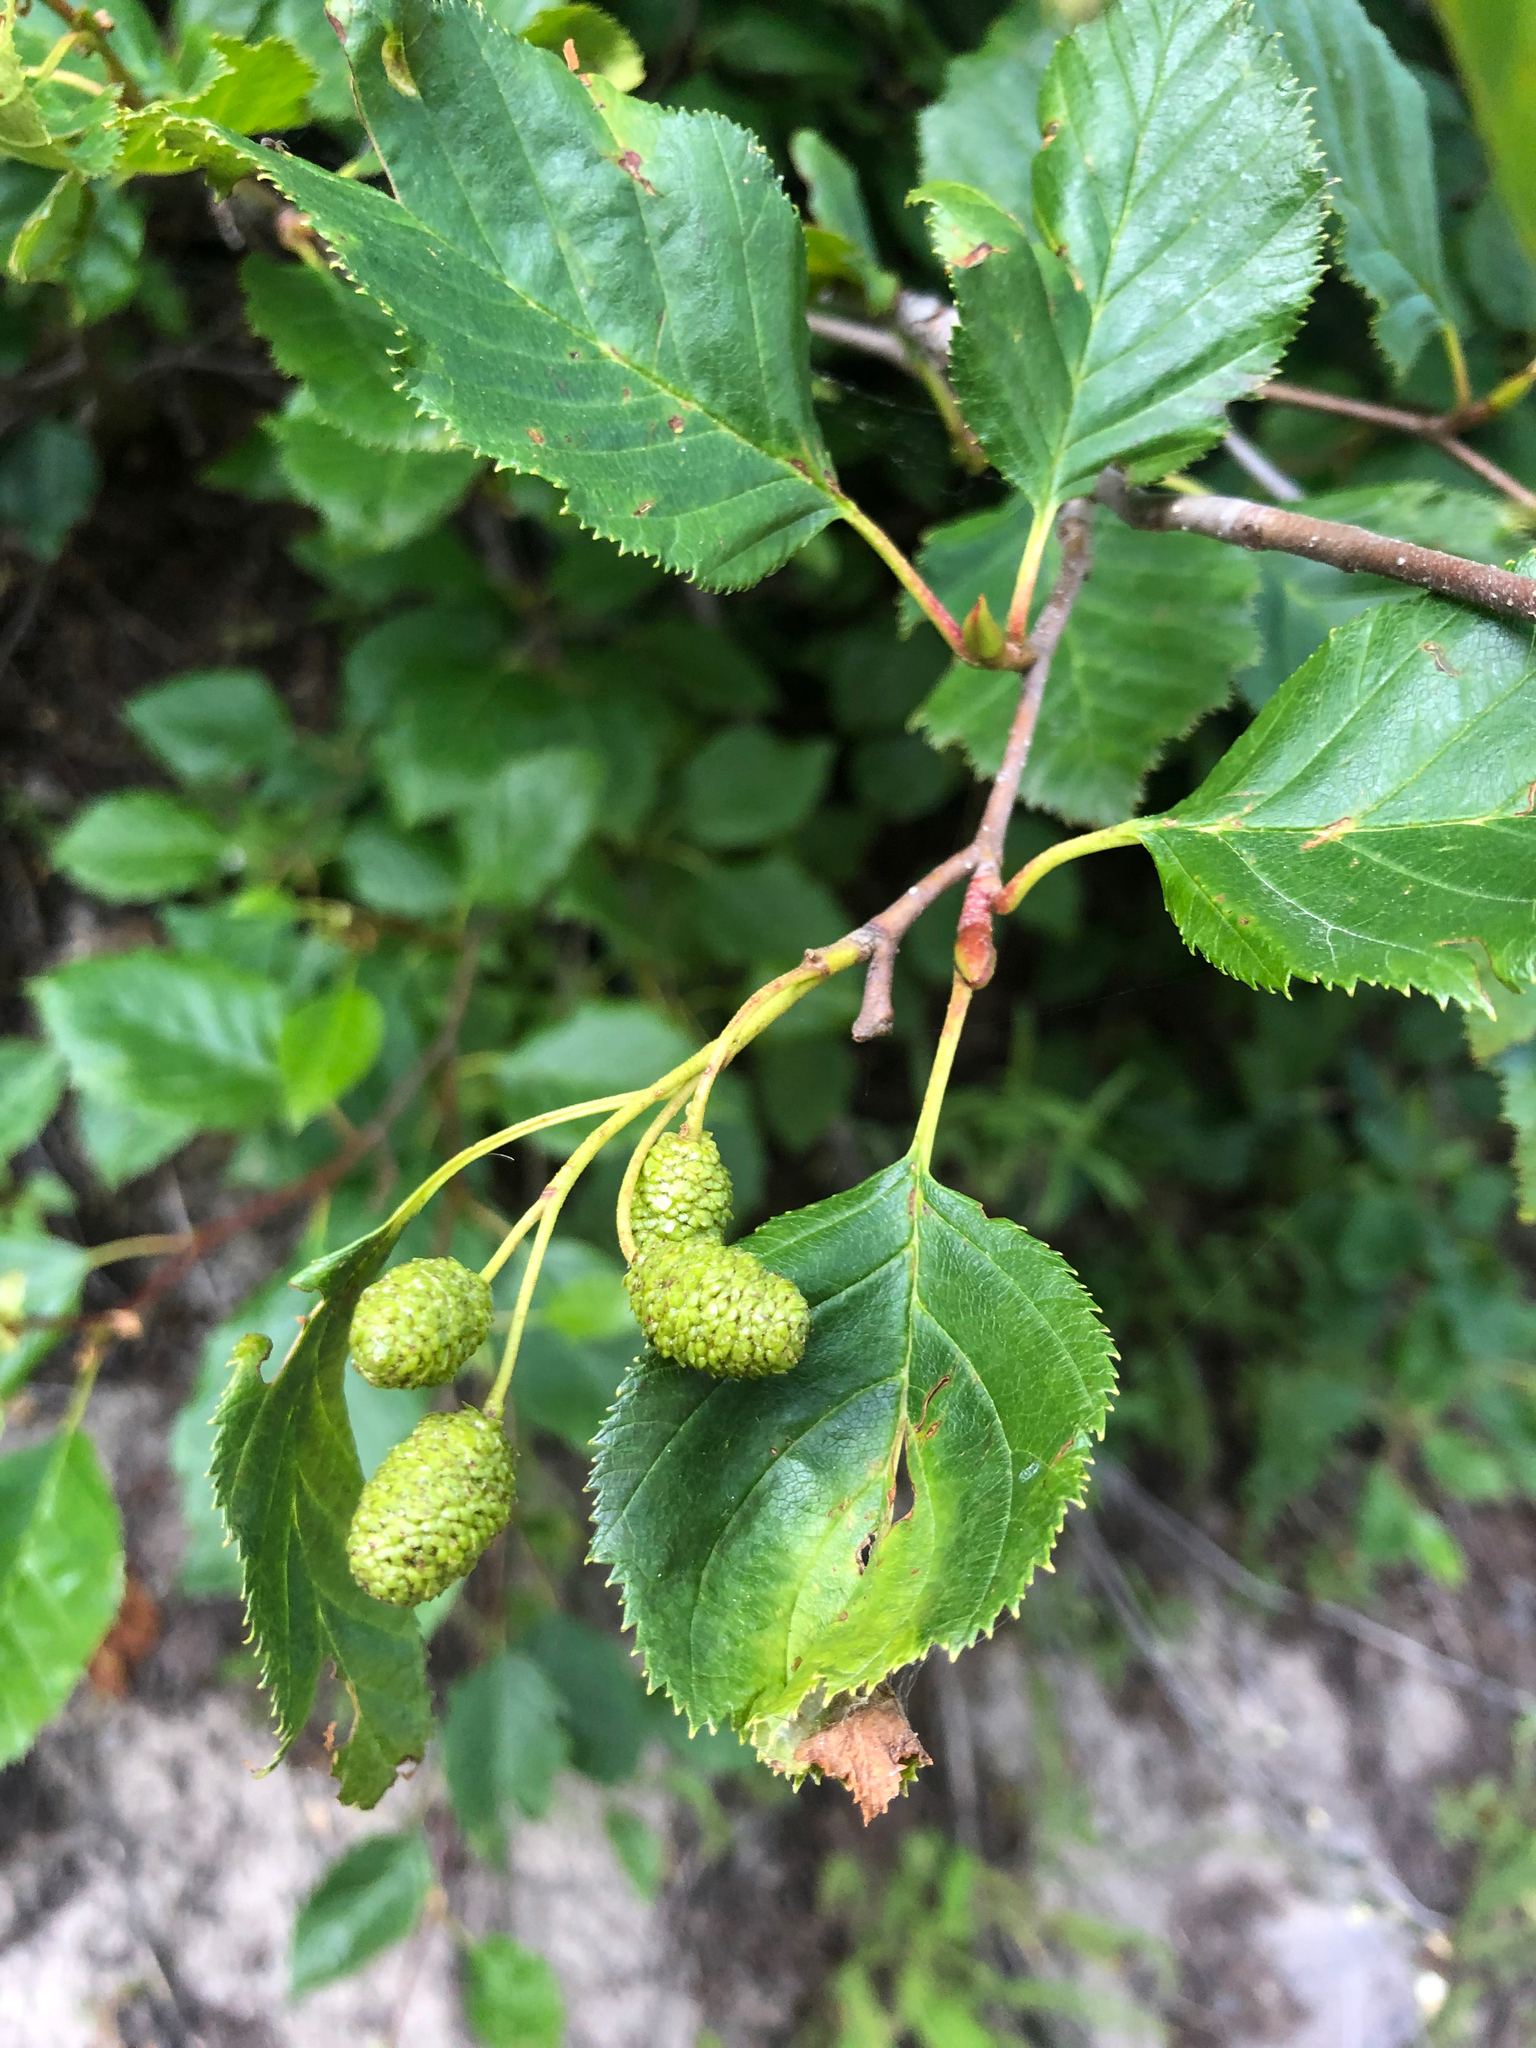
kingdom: Plantae
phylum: Tracheophyta
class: Magnoliopsida
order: Fagales
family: Betulaceae
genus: Alnus
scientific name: Alnus alnobetula
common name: Green alder
